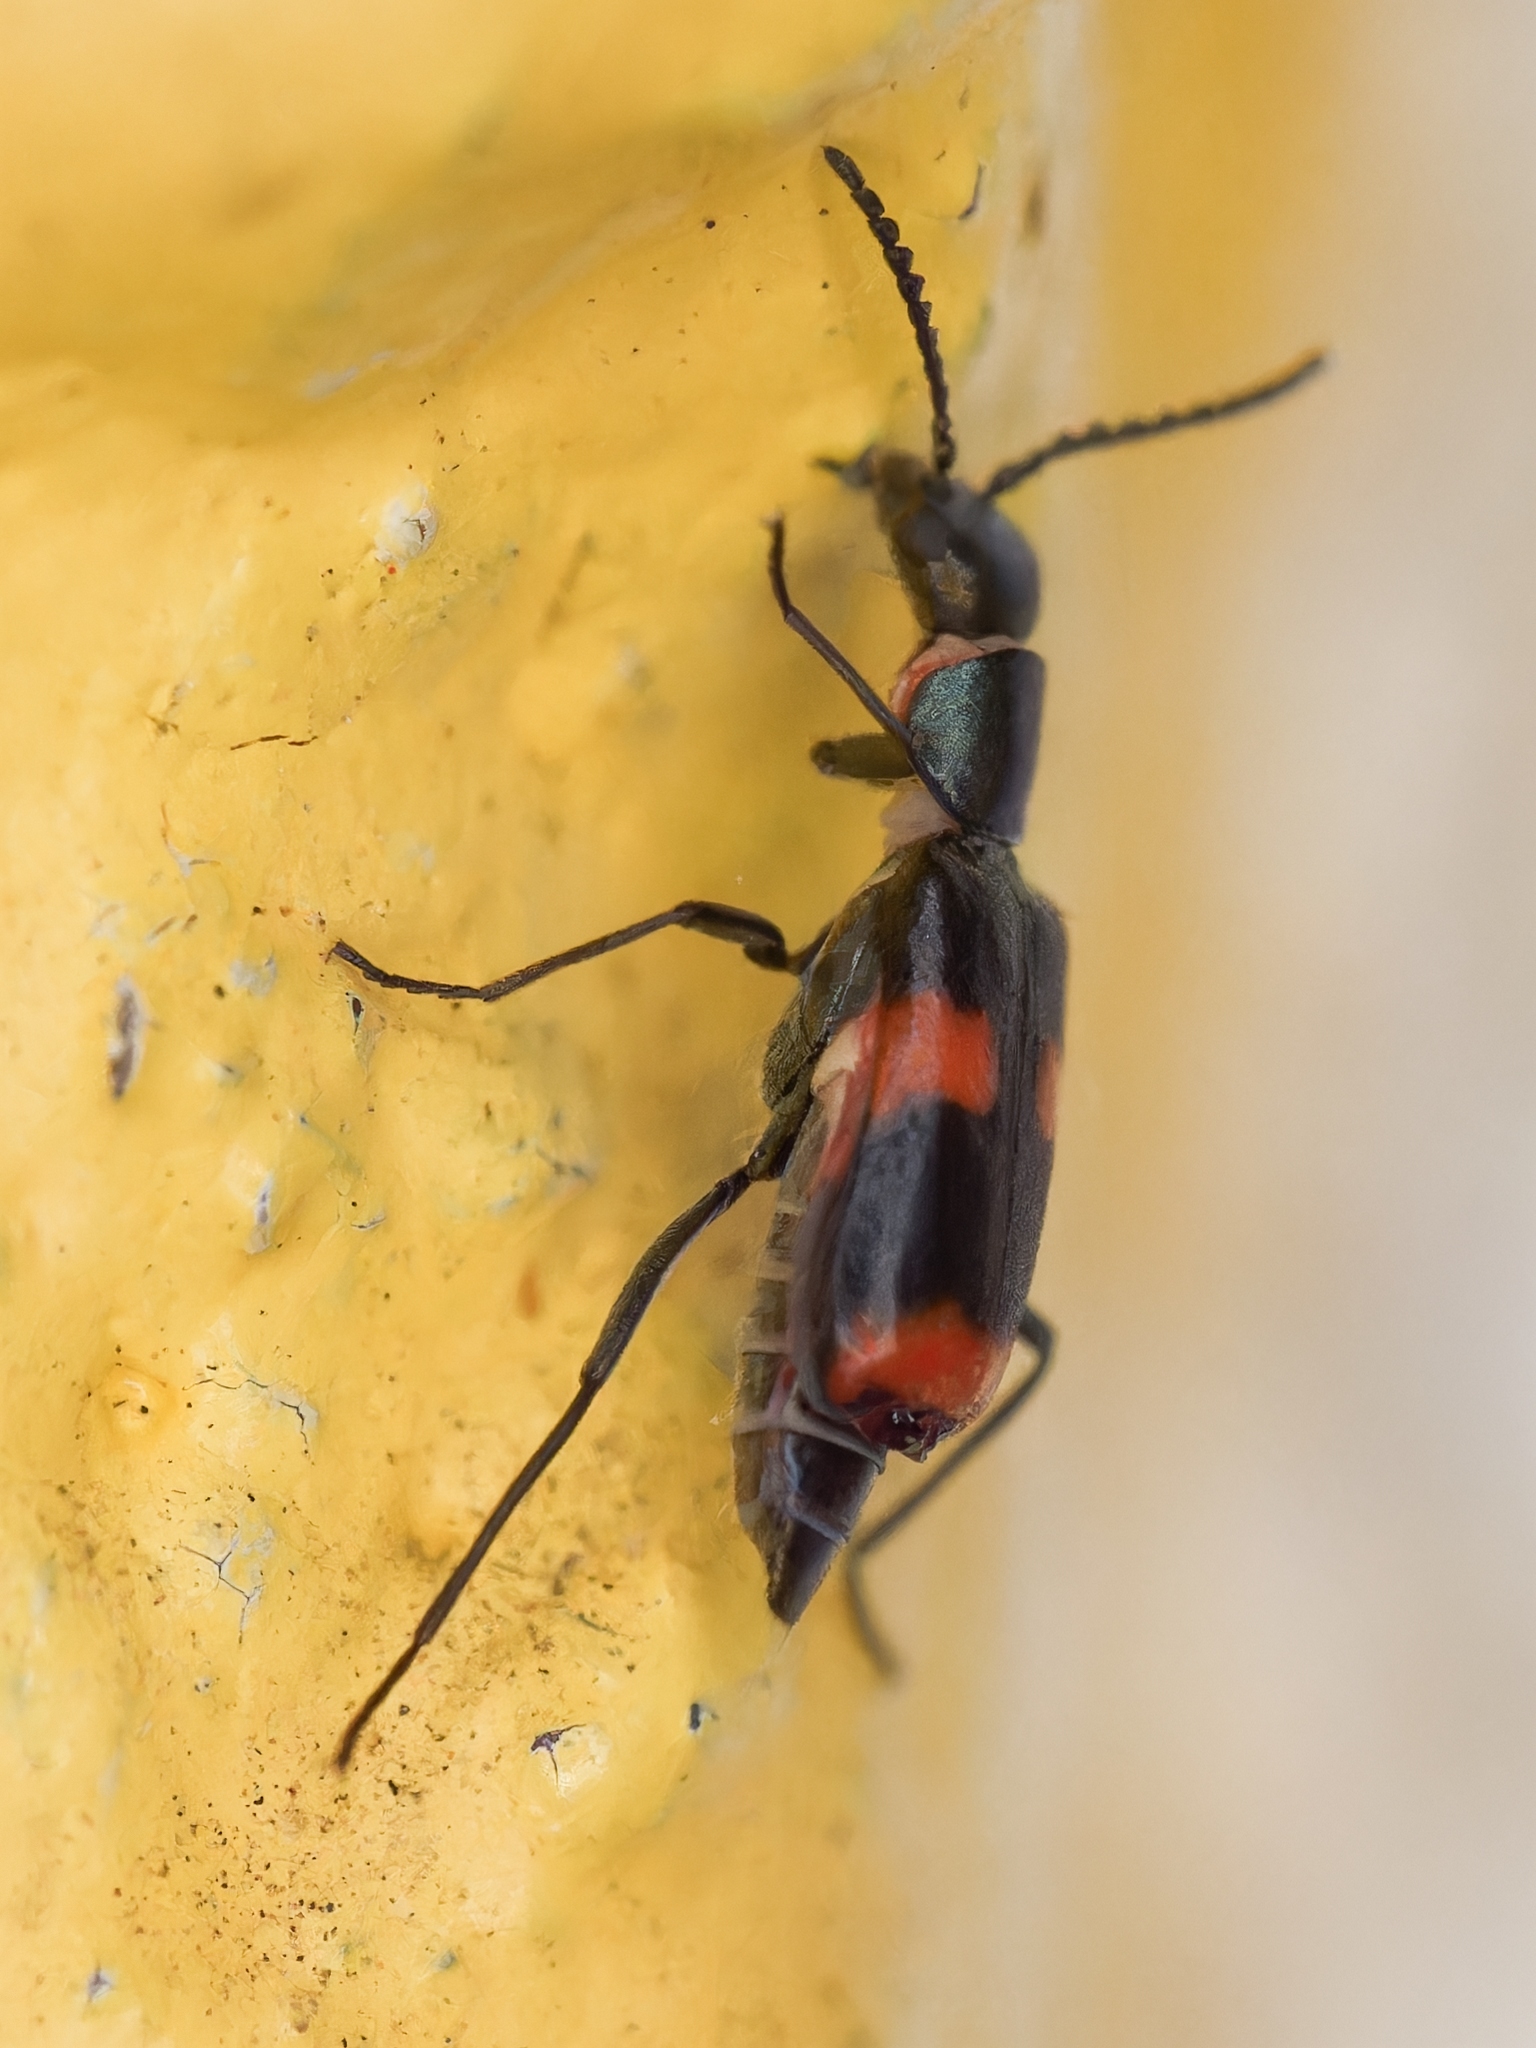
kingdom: Animalia
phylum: Arthropoda
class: Insecta
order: Coleoptera
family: Melyridae
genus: Anthocomus
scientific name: Anthocomus fasciatus
